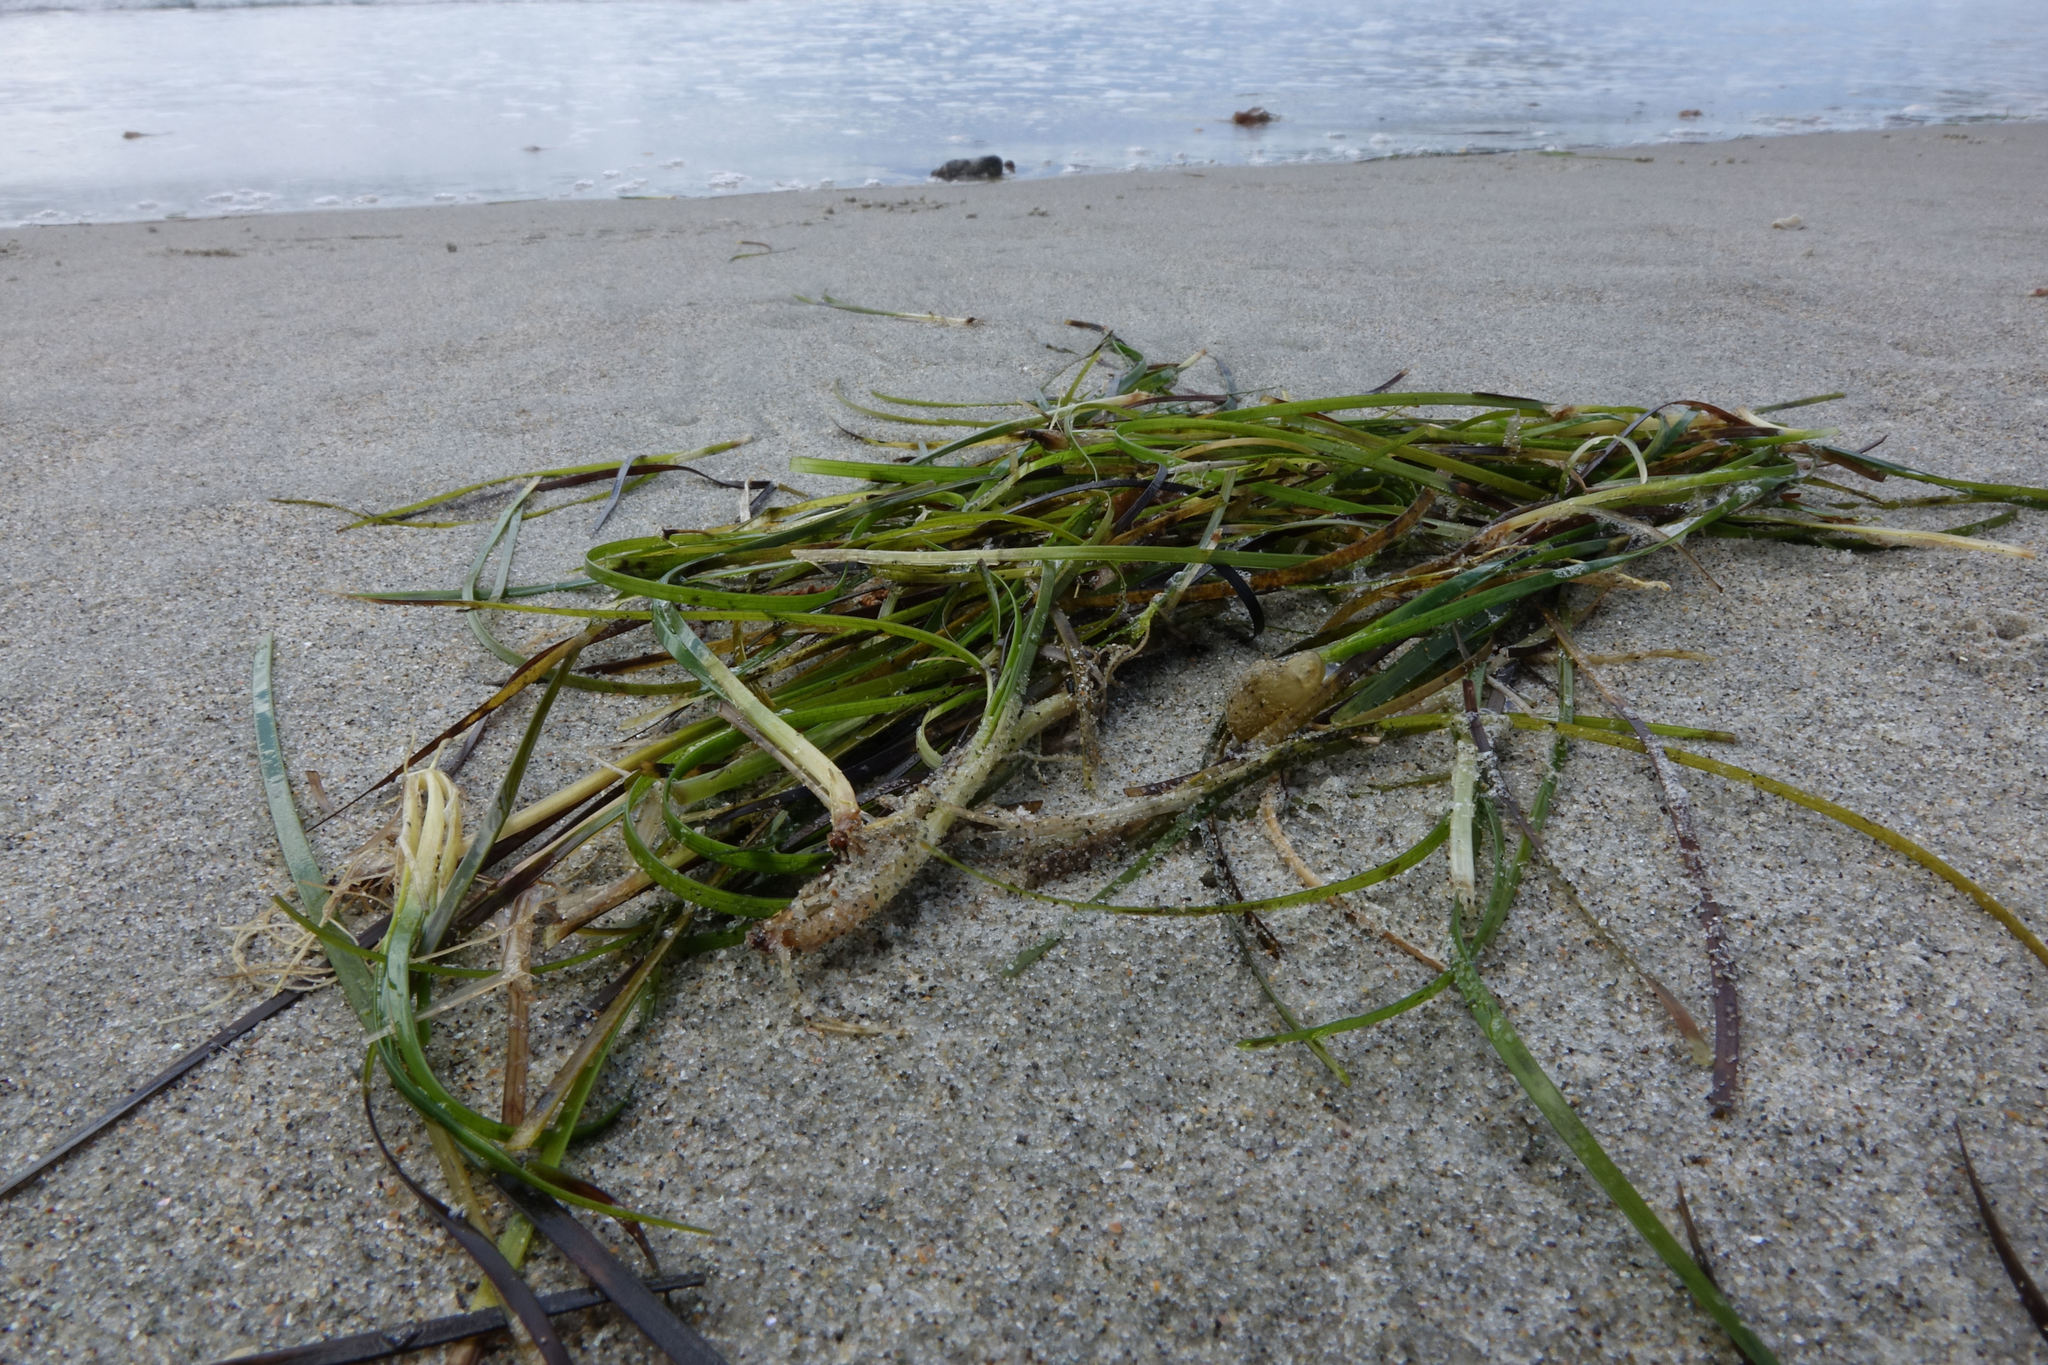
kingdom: Plantae
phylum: Tracheophyta
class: Liliopsida
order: Alismatales
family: Zosteraceae
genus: Zostera
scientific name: Zostera novazelandica
